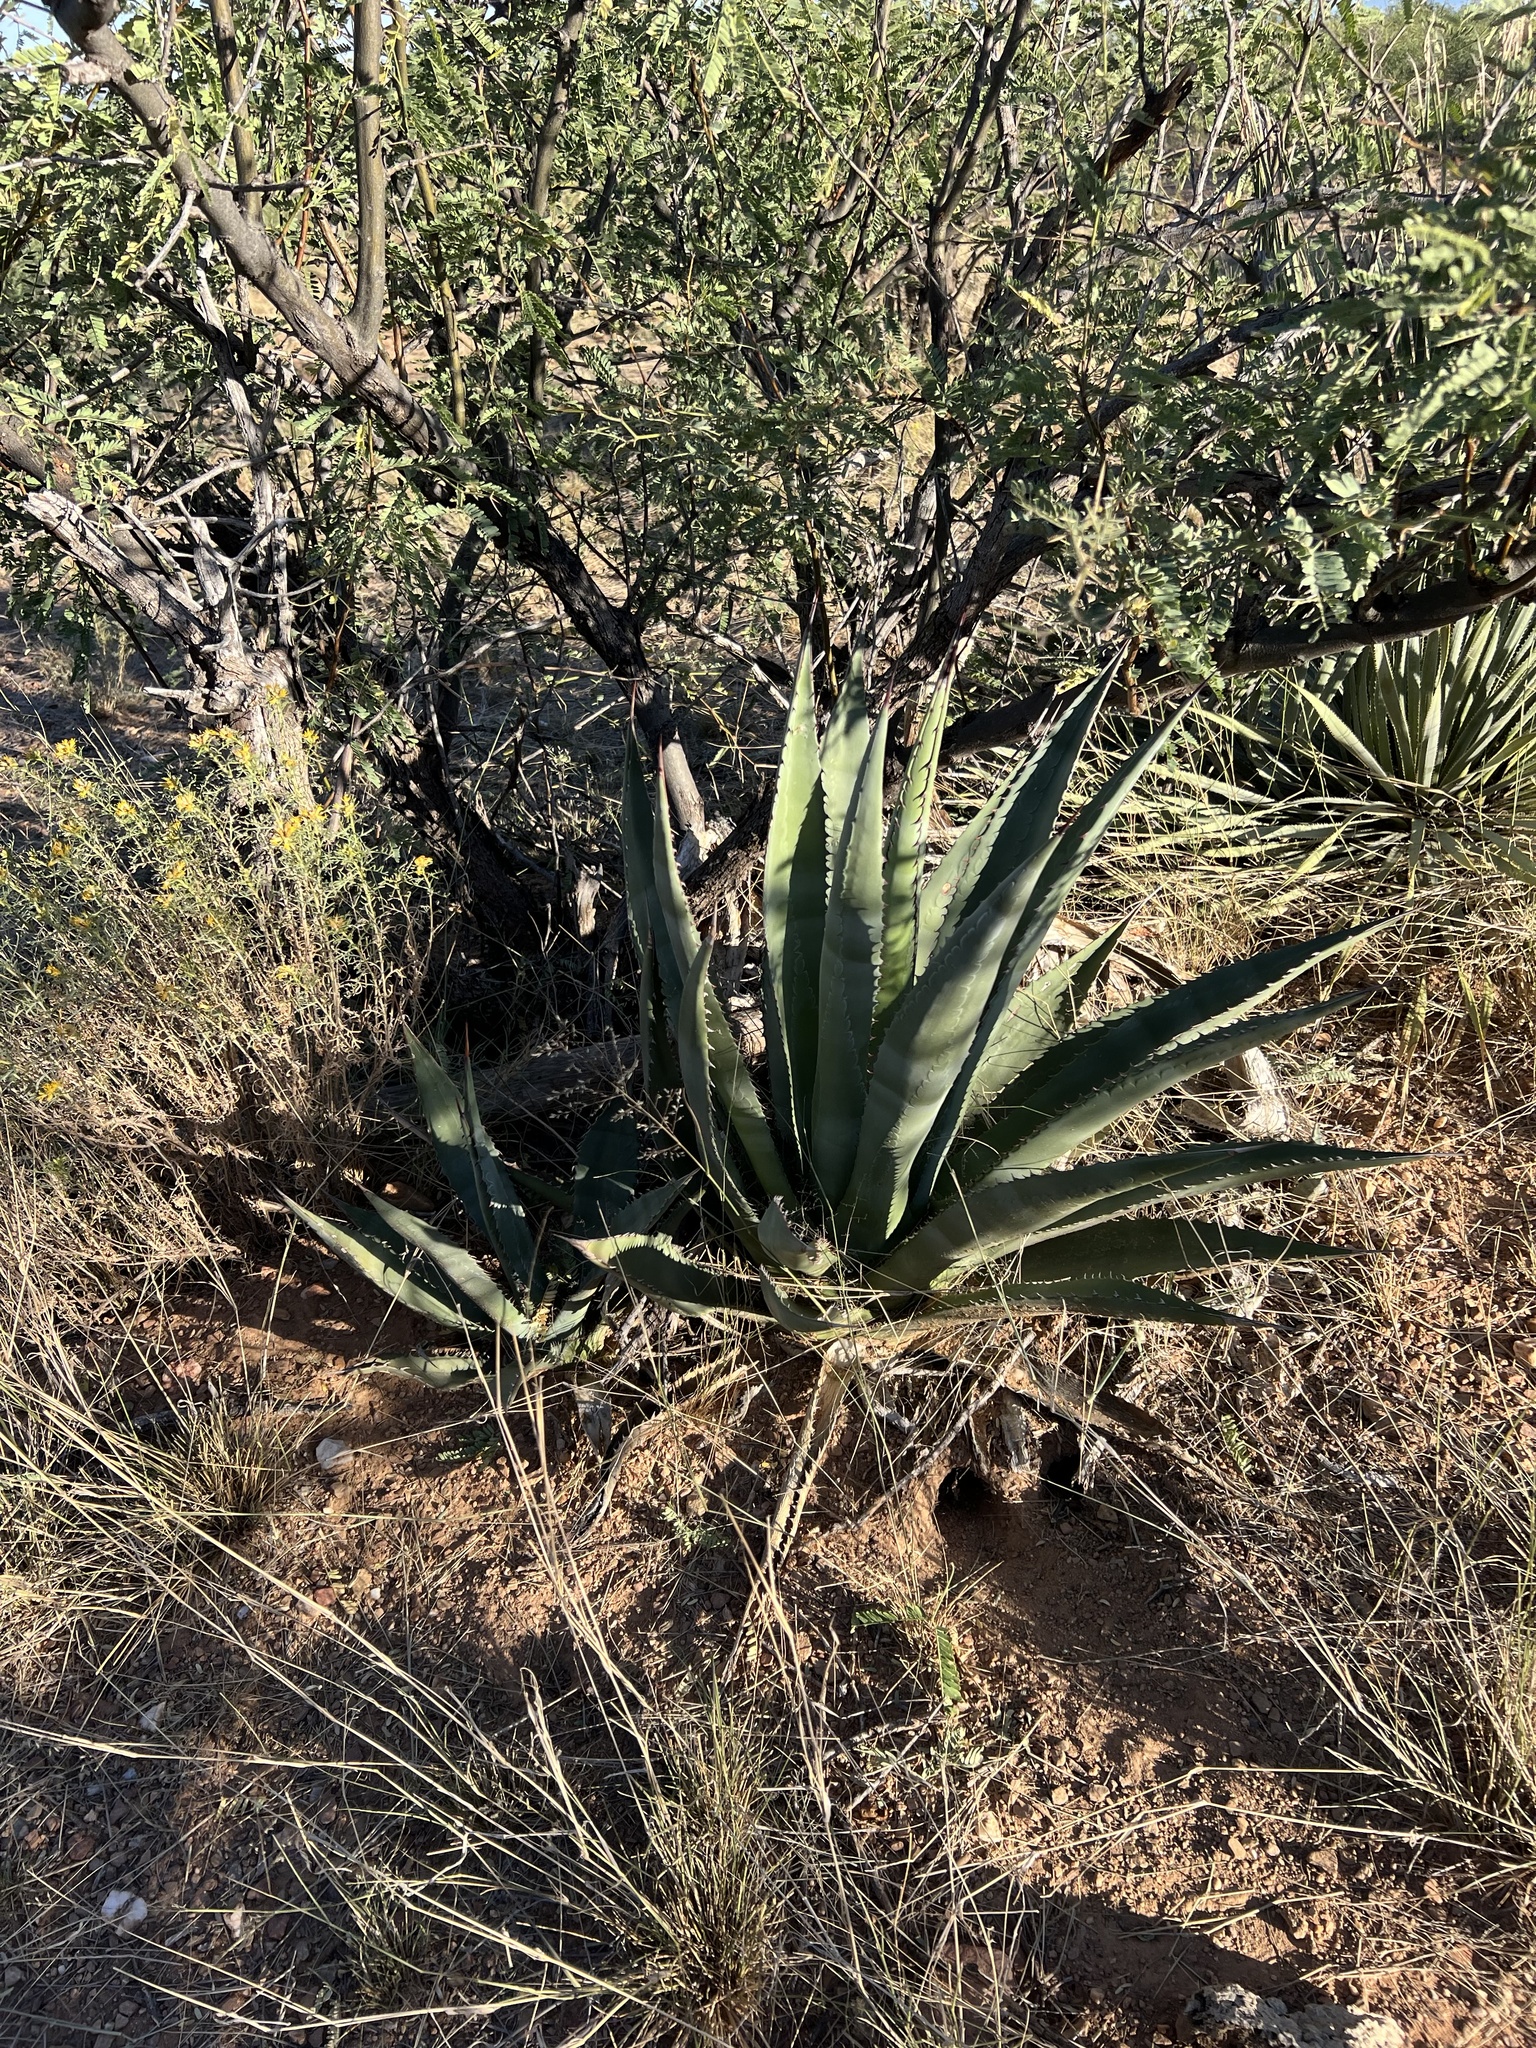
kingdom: Plantae
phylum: Tracheophyta
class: Liliopsida
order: Asparagales
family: Asparagaceae
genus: Agave
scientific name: Agave palmeri
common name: Palmer agave
